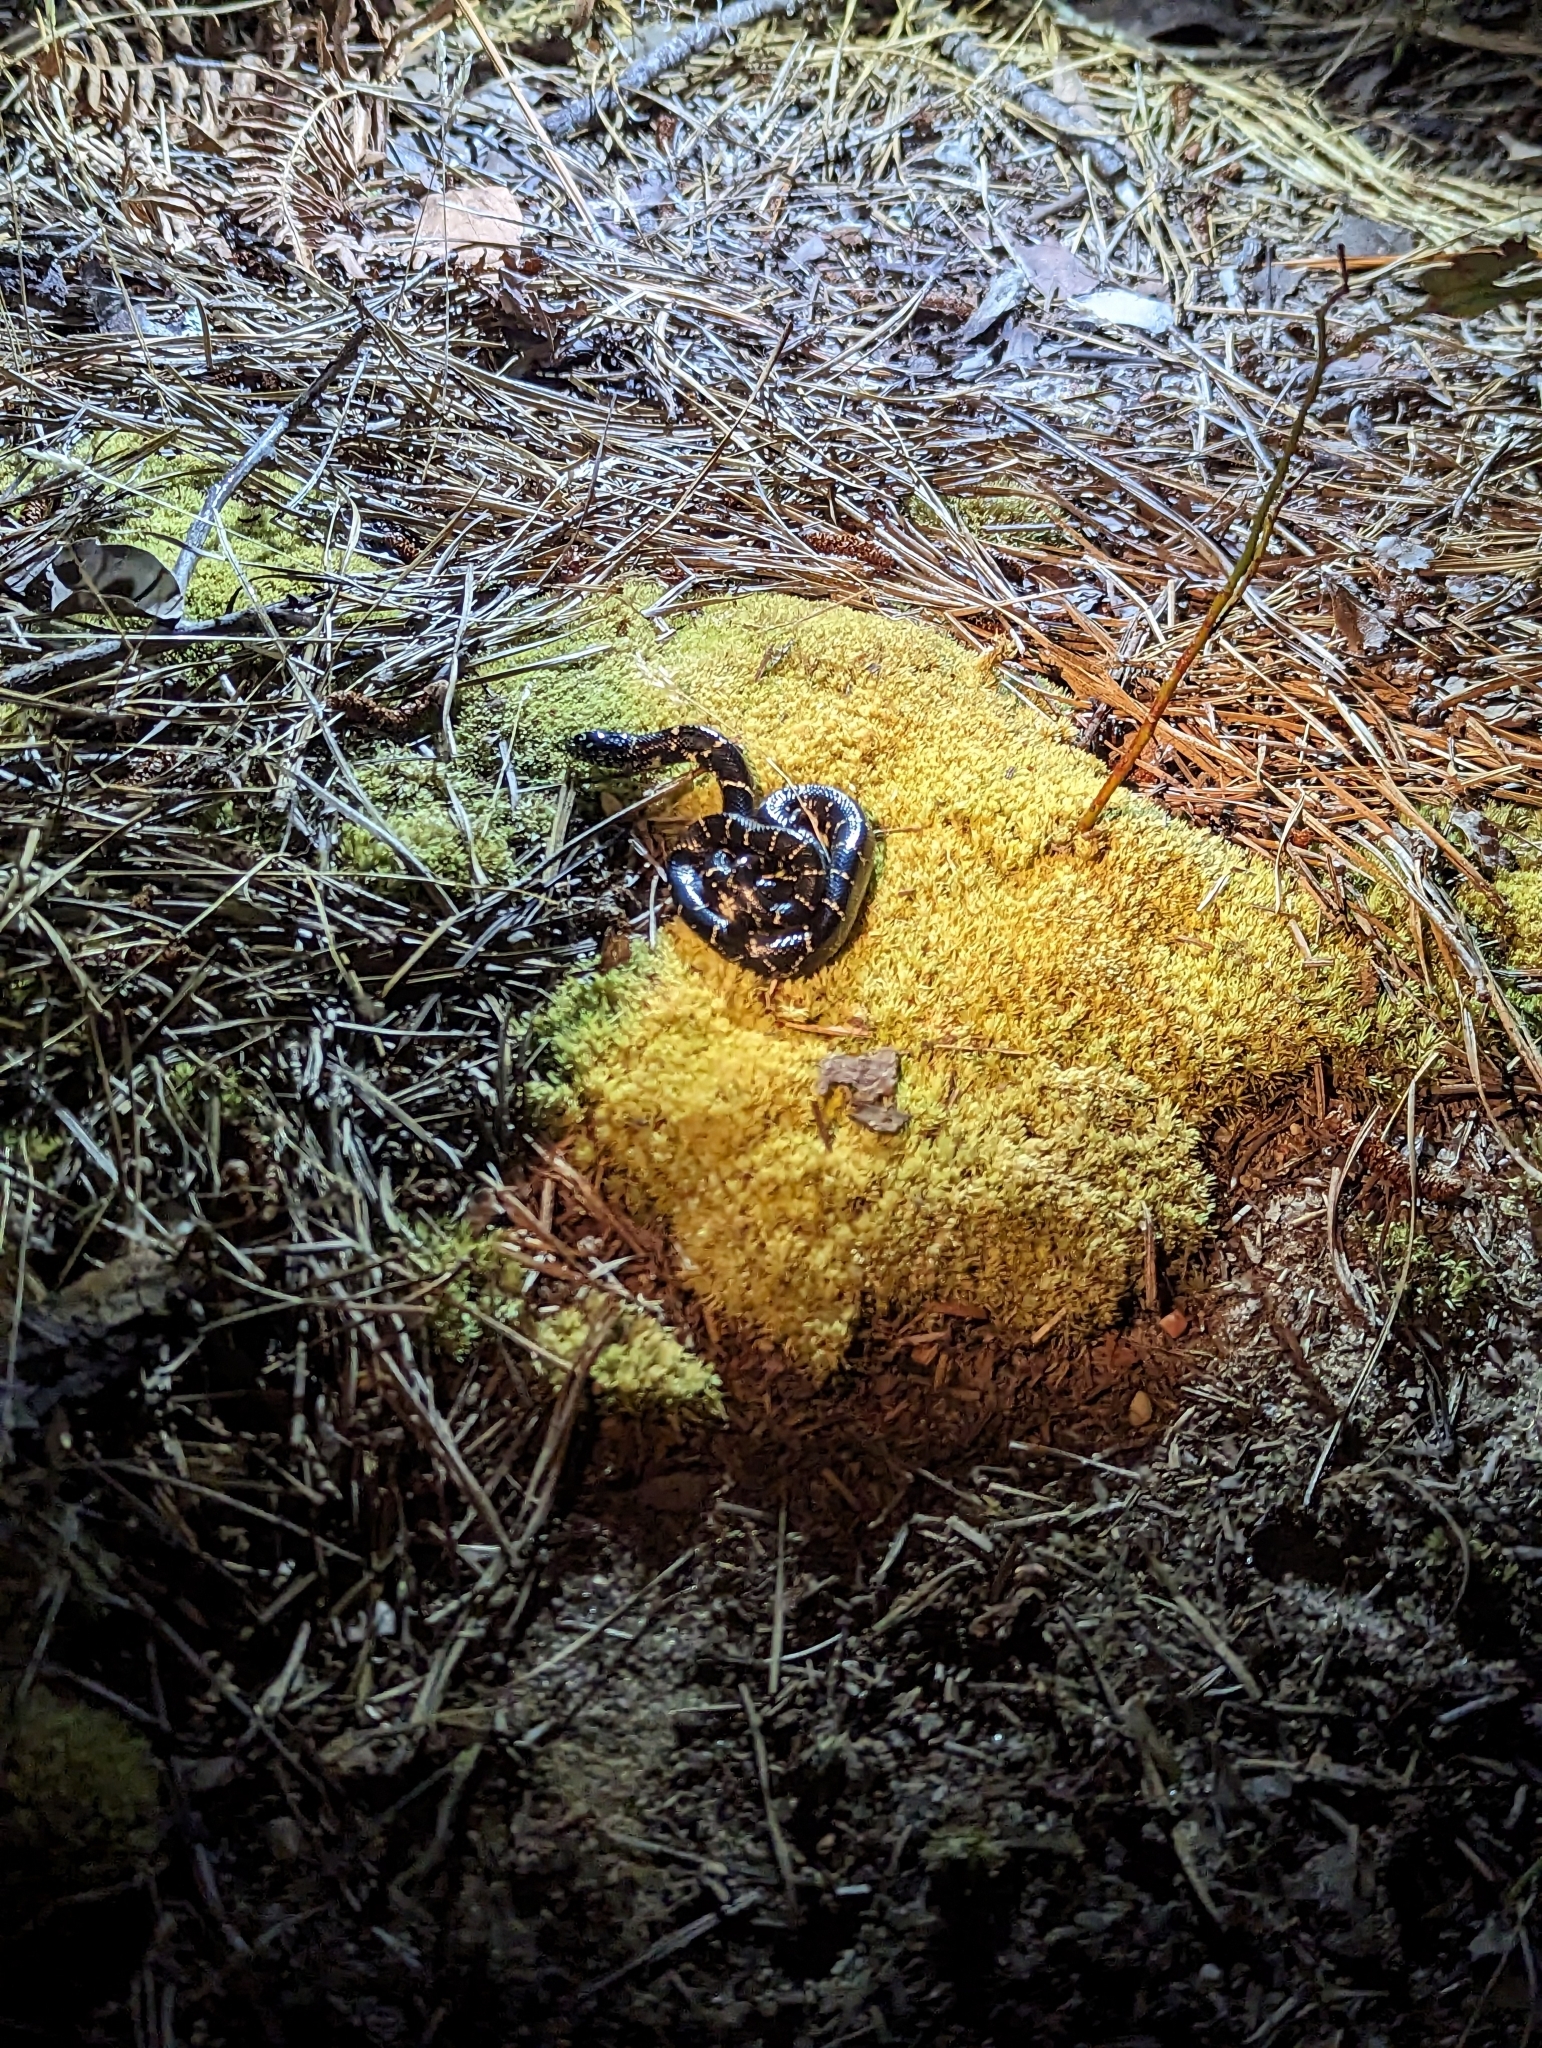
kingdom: Animalia
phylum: Chordata
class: Squamata
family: Colubridae
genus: Lampropeltis
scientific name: Lampropeltis getula
